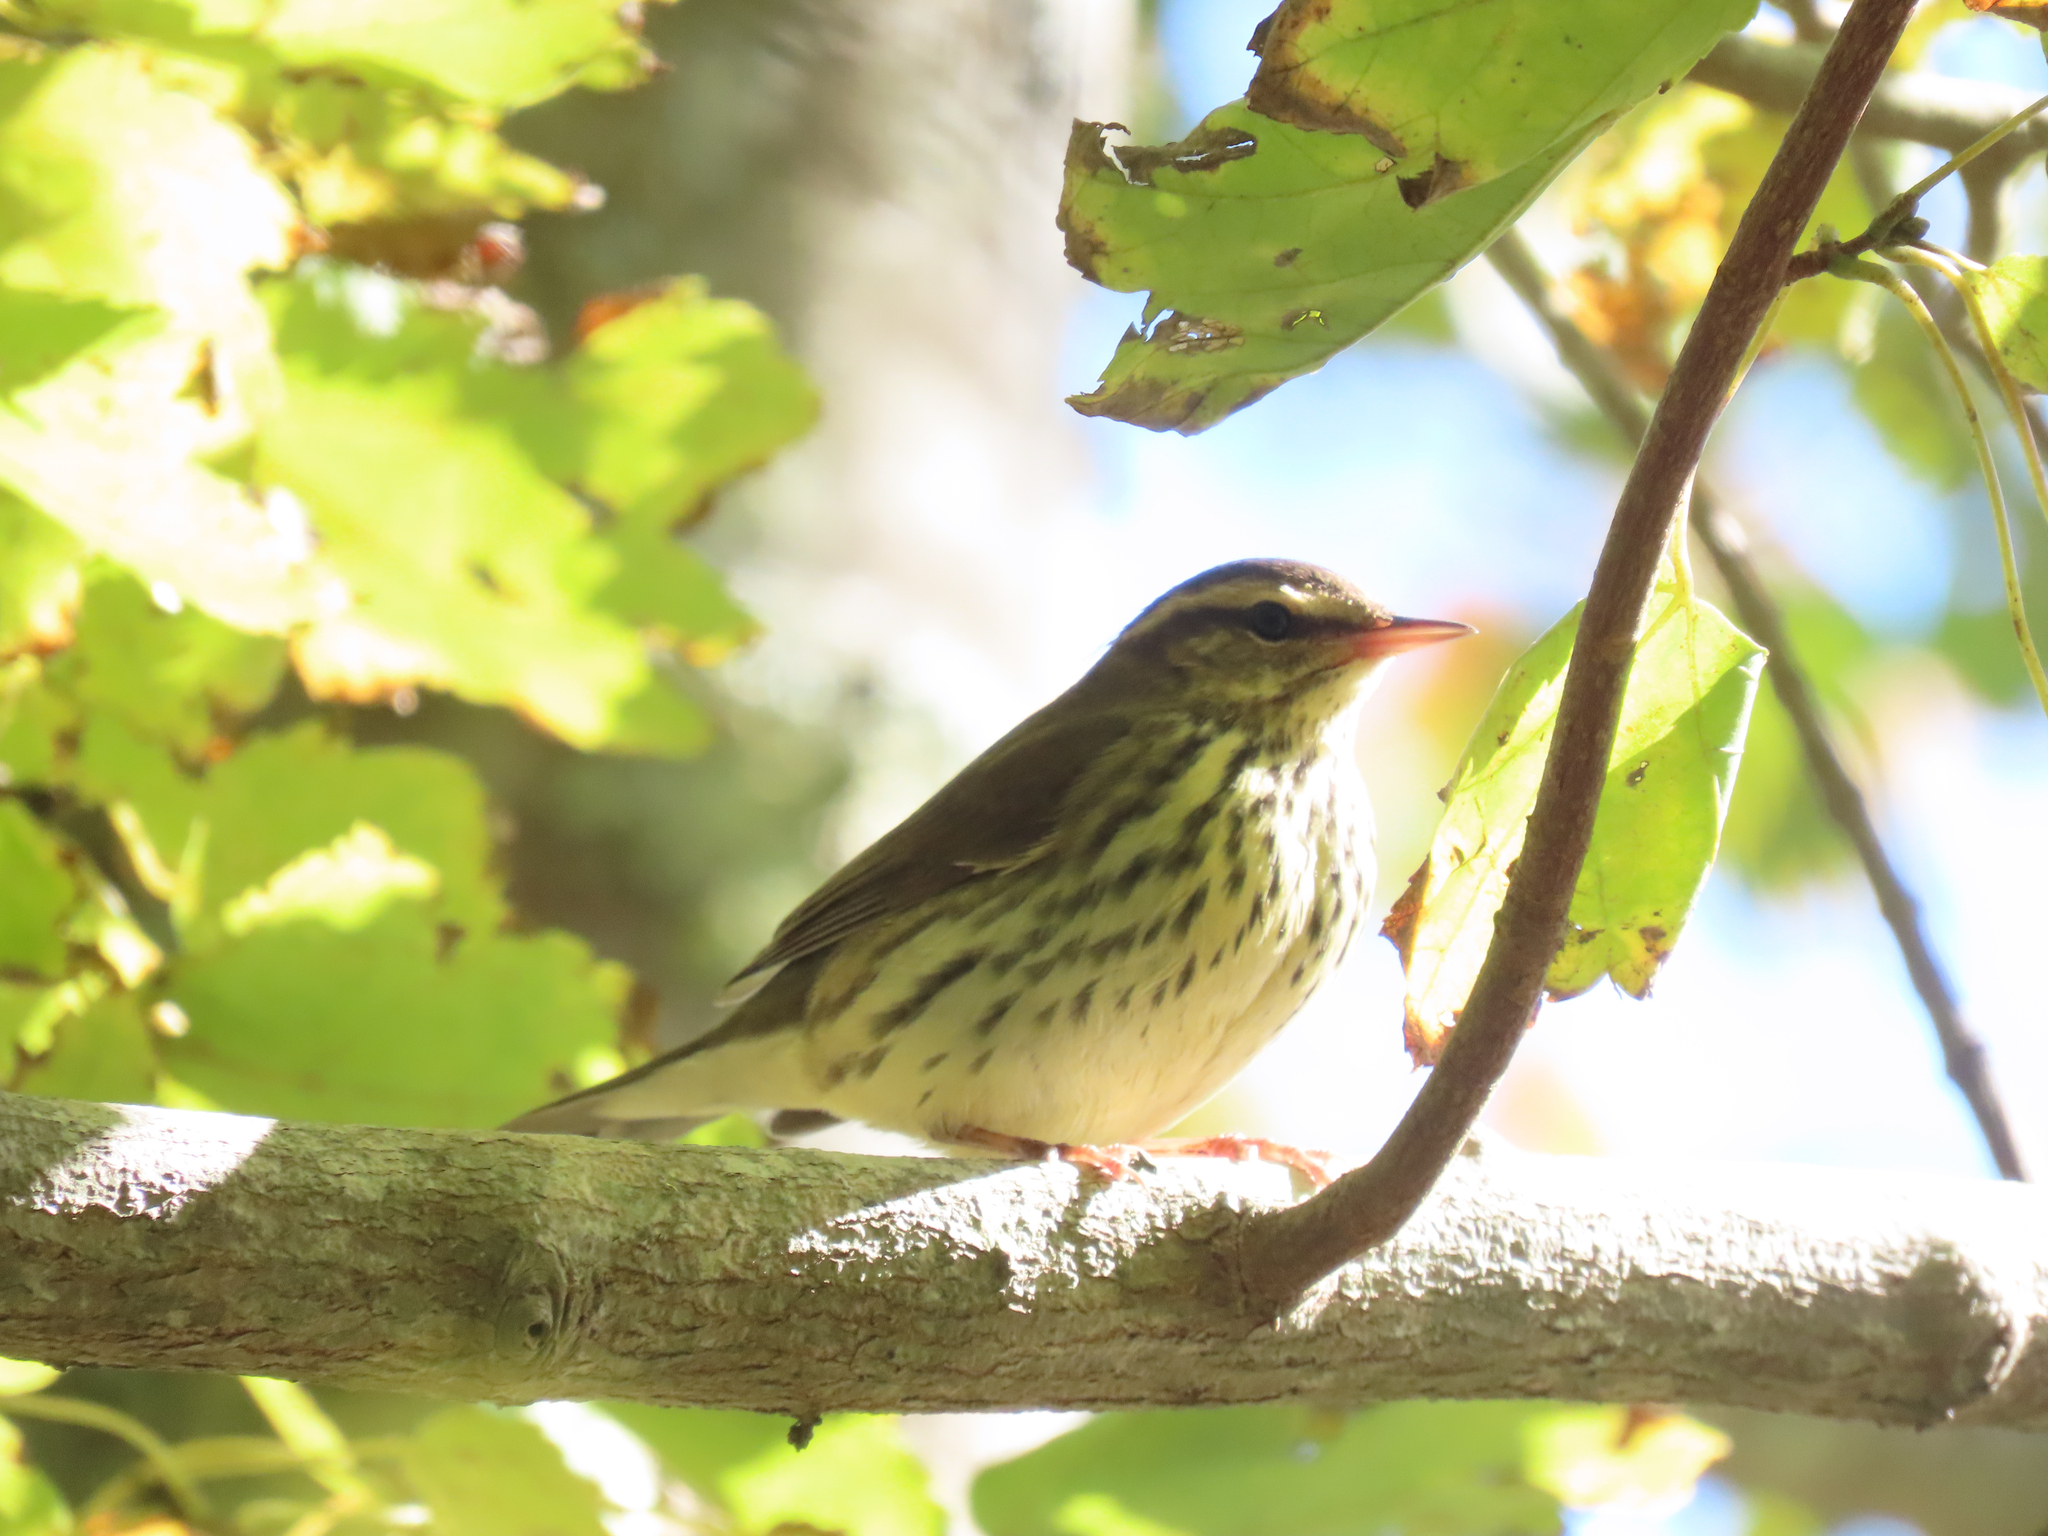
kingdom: Animalia
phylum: Chordata
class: Aves
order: Passeriformes
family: Parulidae
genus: Parkesia
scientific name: Parkesia noveboracensis
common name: Northern waterthrush
